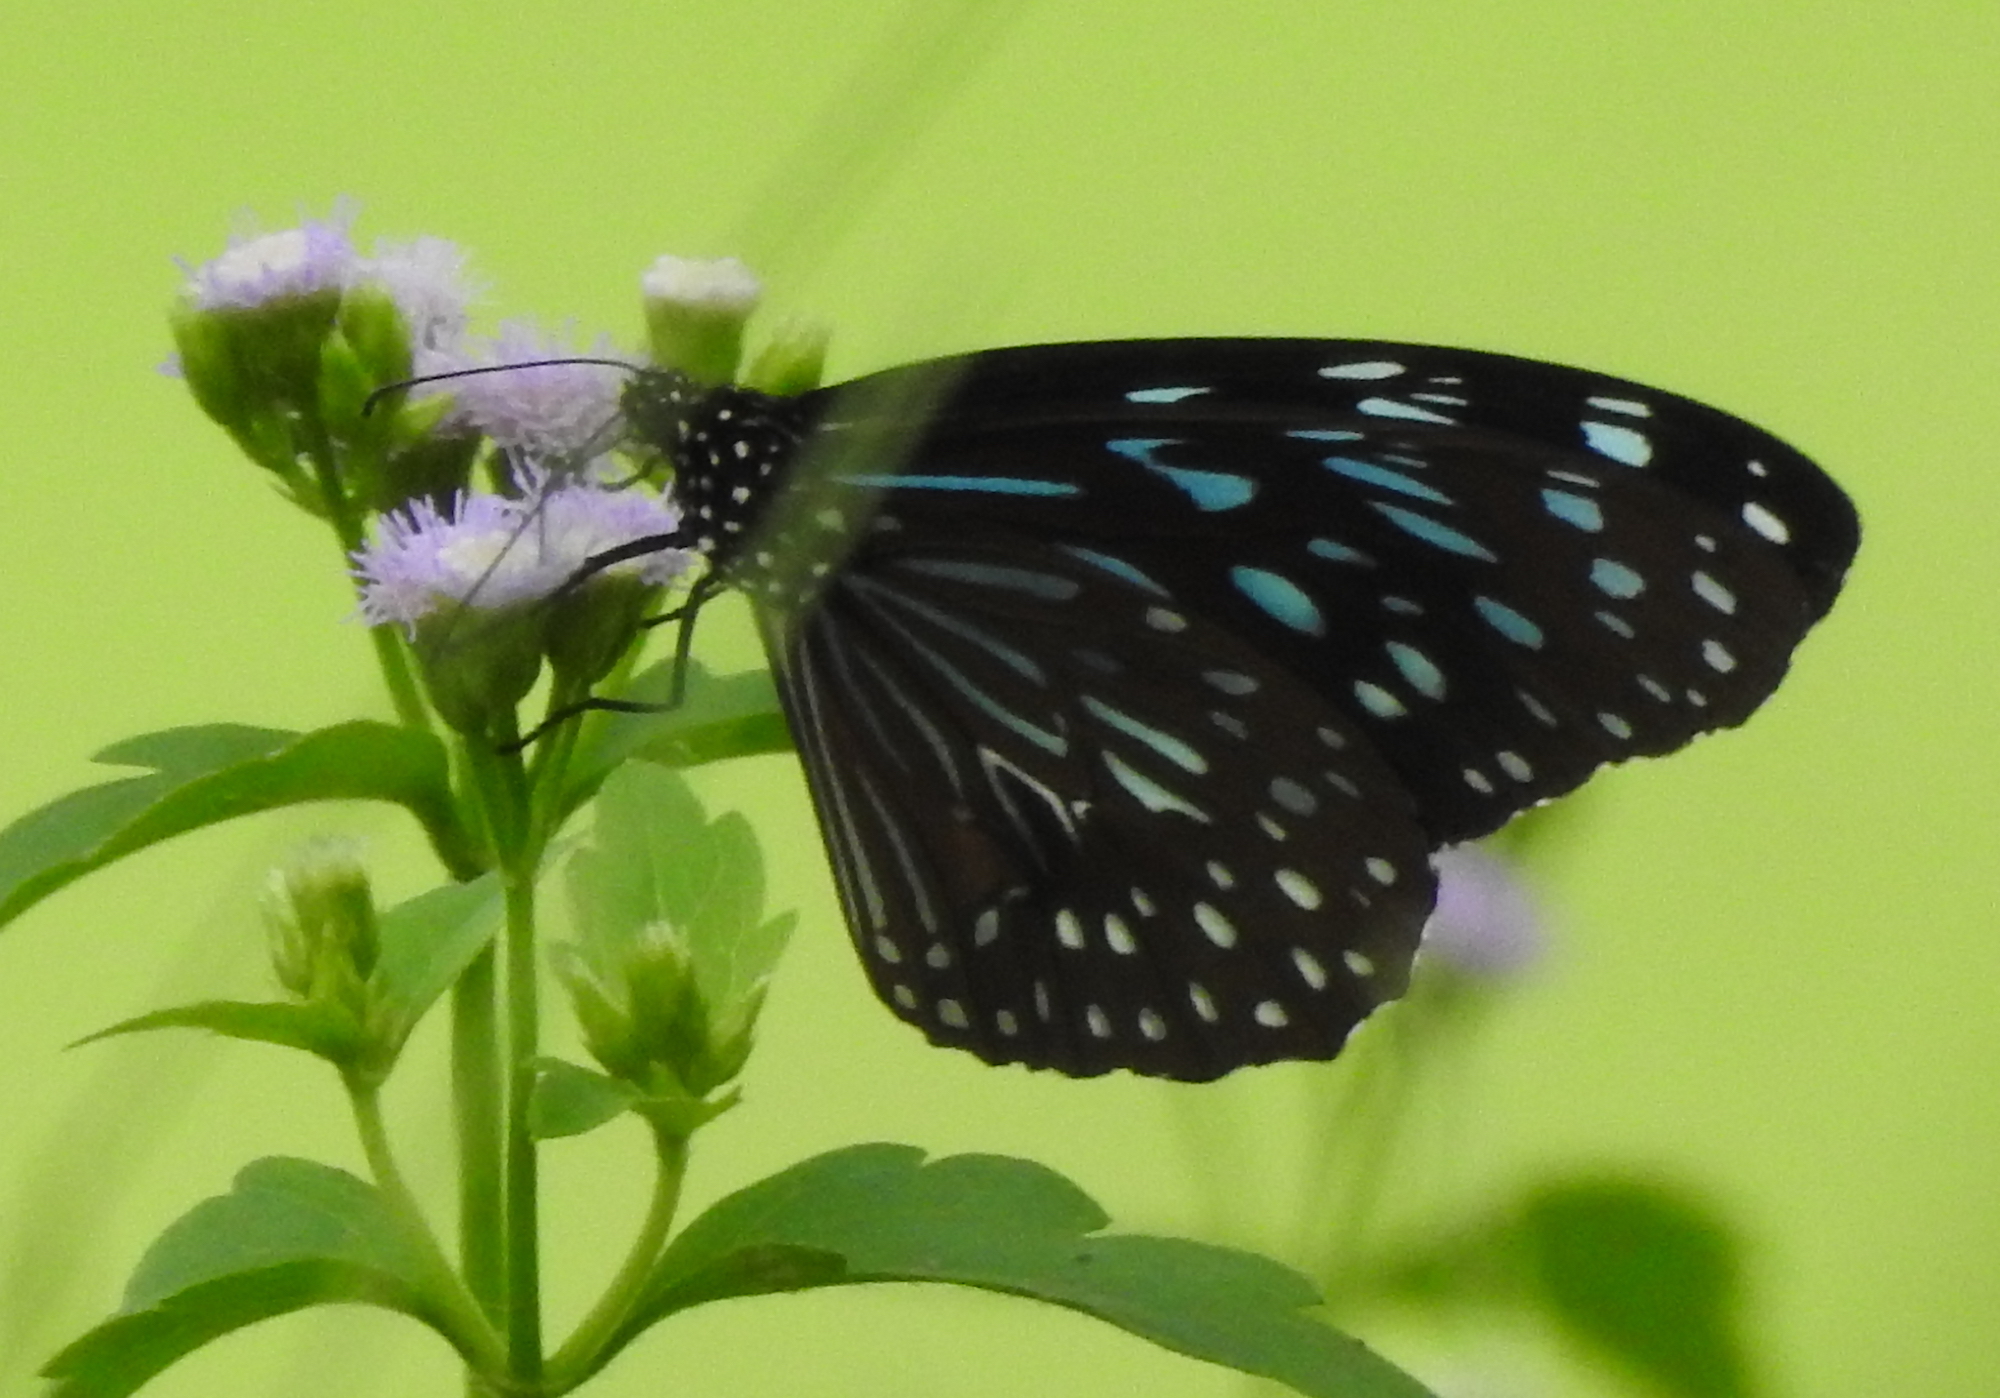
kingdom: Animalia
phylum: Arthropoda
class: Insecta
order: Lepidoptera
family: Nymphalidae
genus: Tirumala
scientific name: Tirumala septentrionis
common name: Dark blue tiger butterfly
